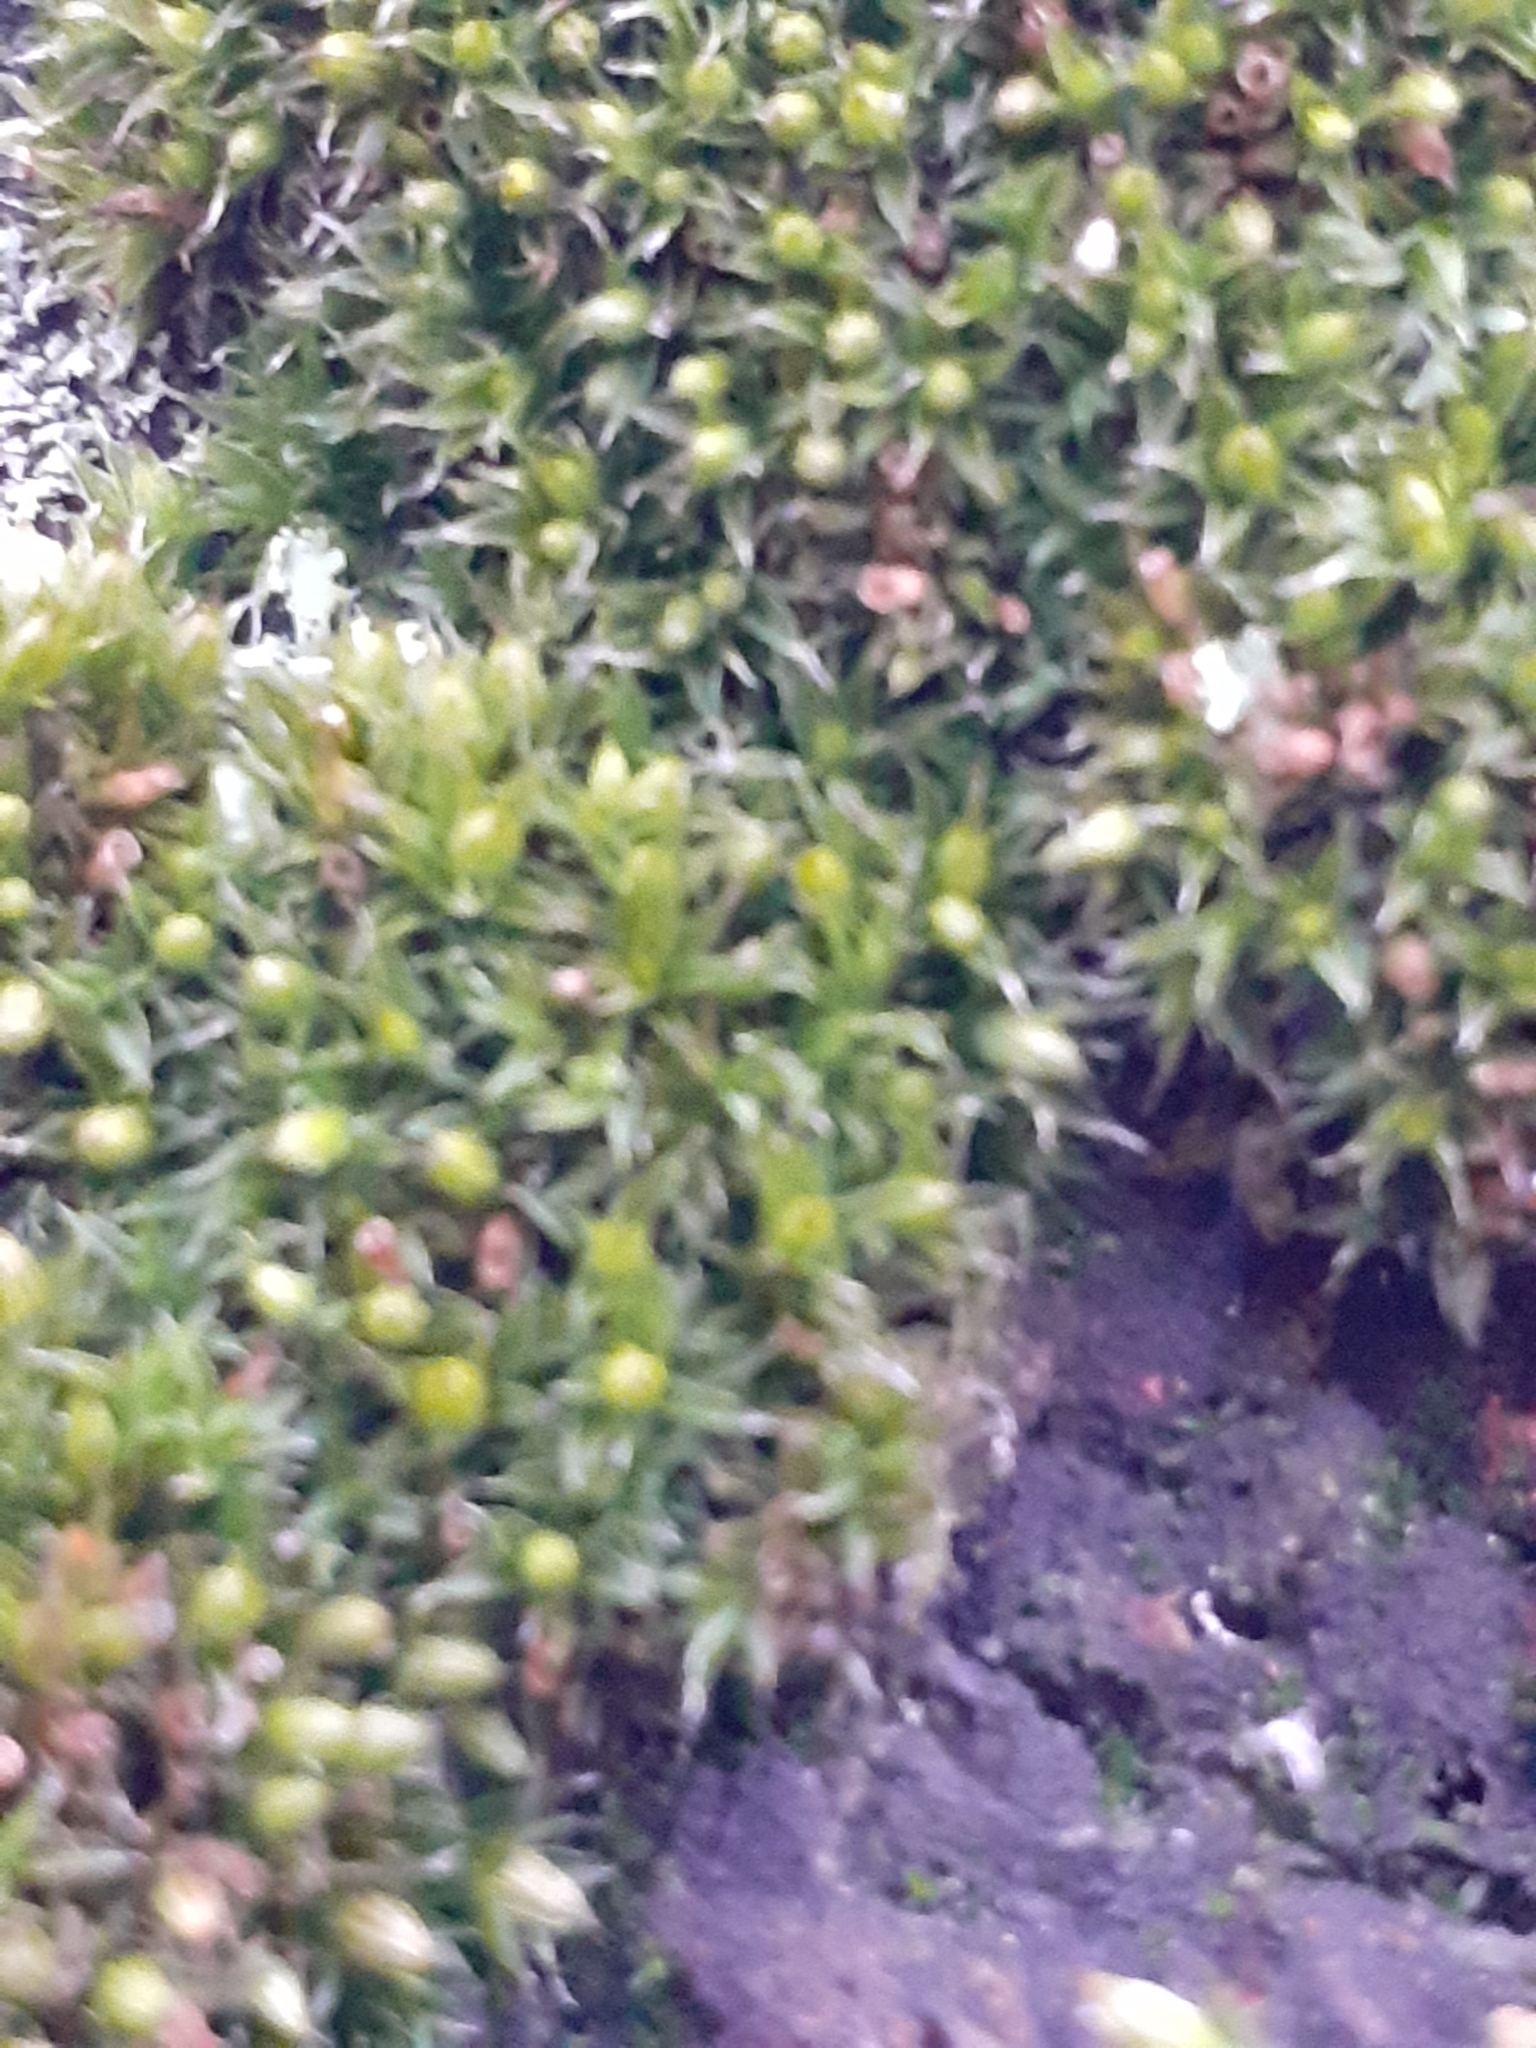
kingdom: Plantae
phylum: Bryophyta
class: Bryopsida
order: Orthotrichales
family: Orthotrichaceae
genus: Orthotrichum
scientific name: Orthotrichum diaphanum
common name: White-tipped bristle-moss
